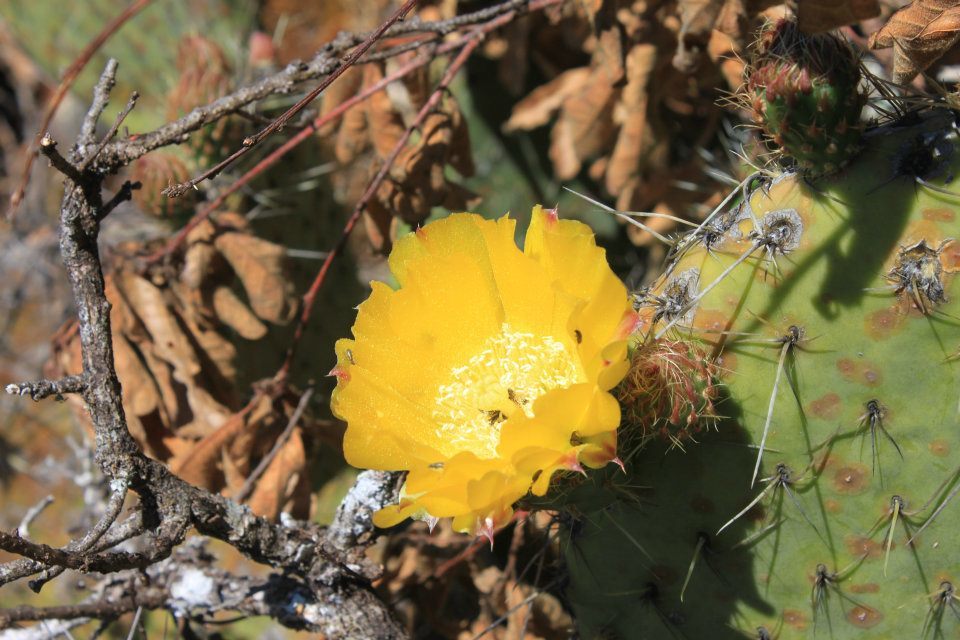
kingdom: Plantae
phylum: Tracheophyta
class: Magnoliopsida
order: Caryophyllales
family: Cactaceae
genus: Opuntia
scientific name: Opuntia dillenii
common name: Sour prickle
